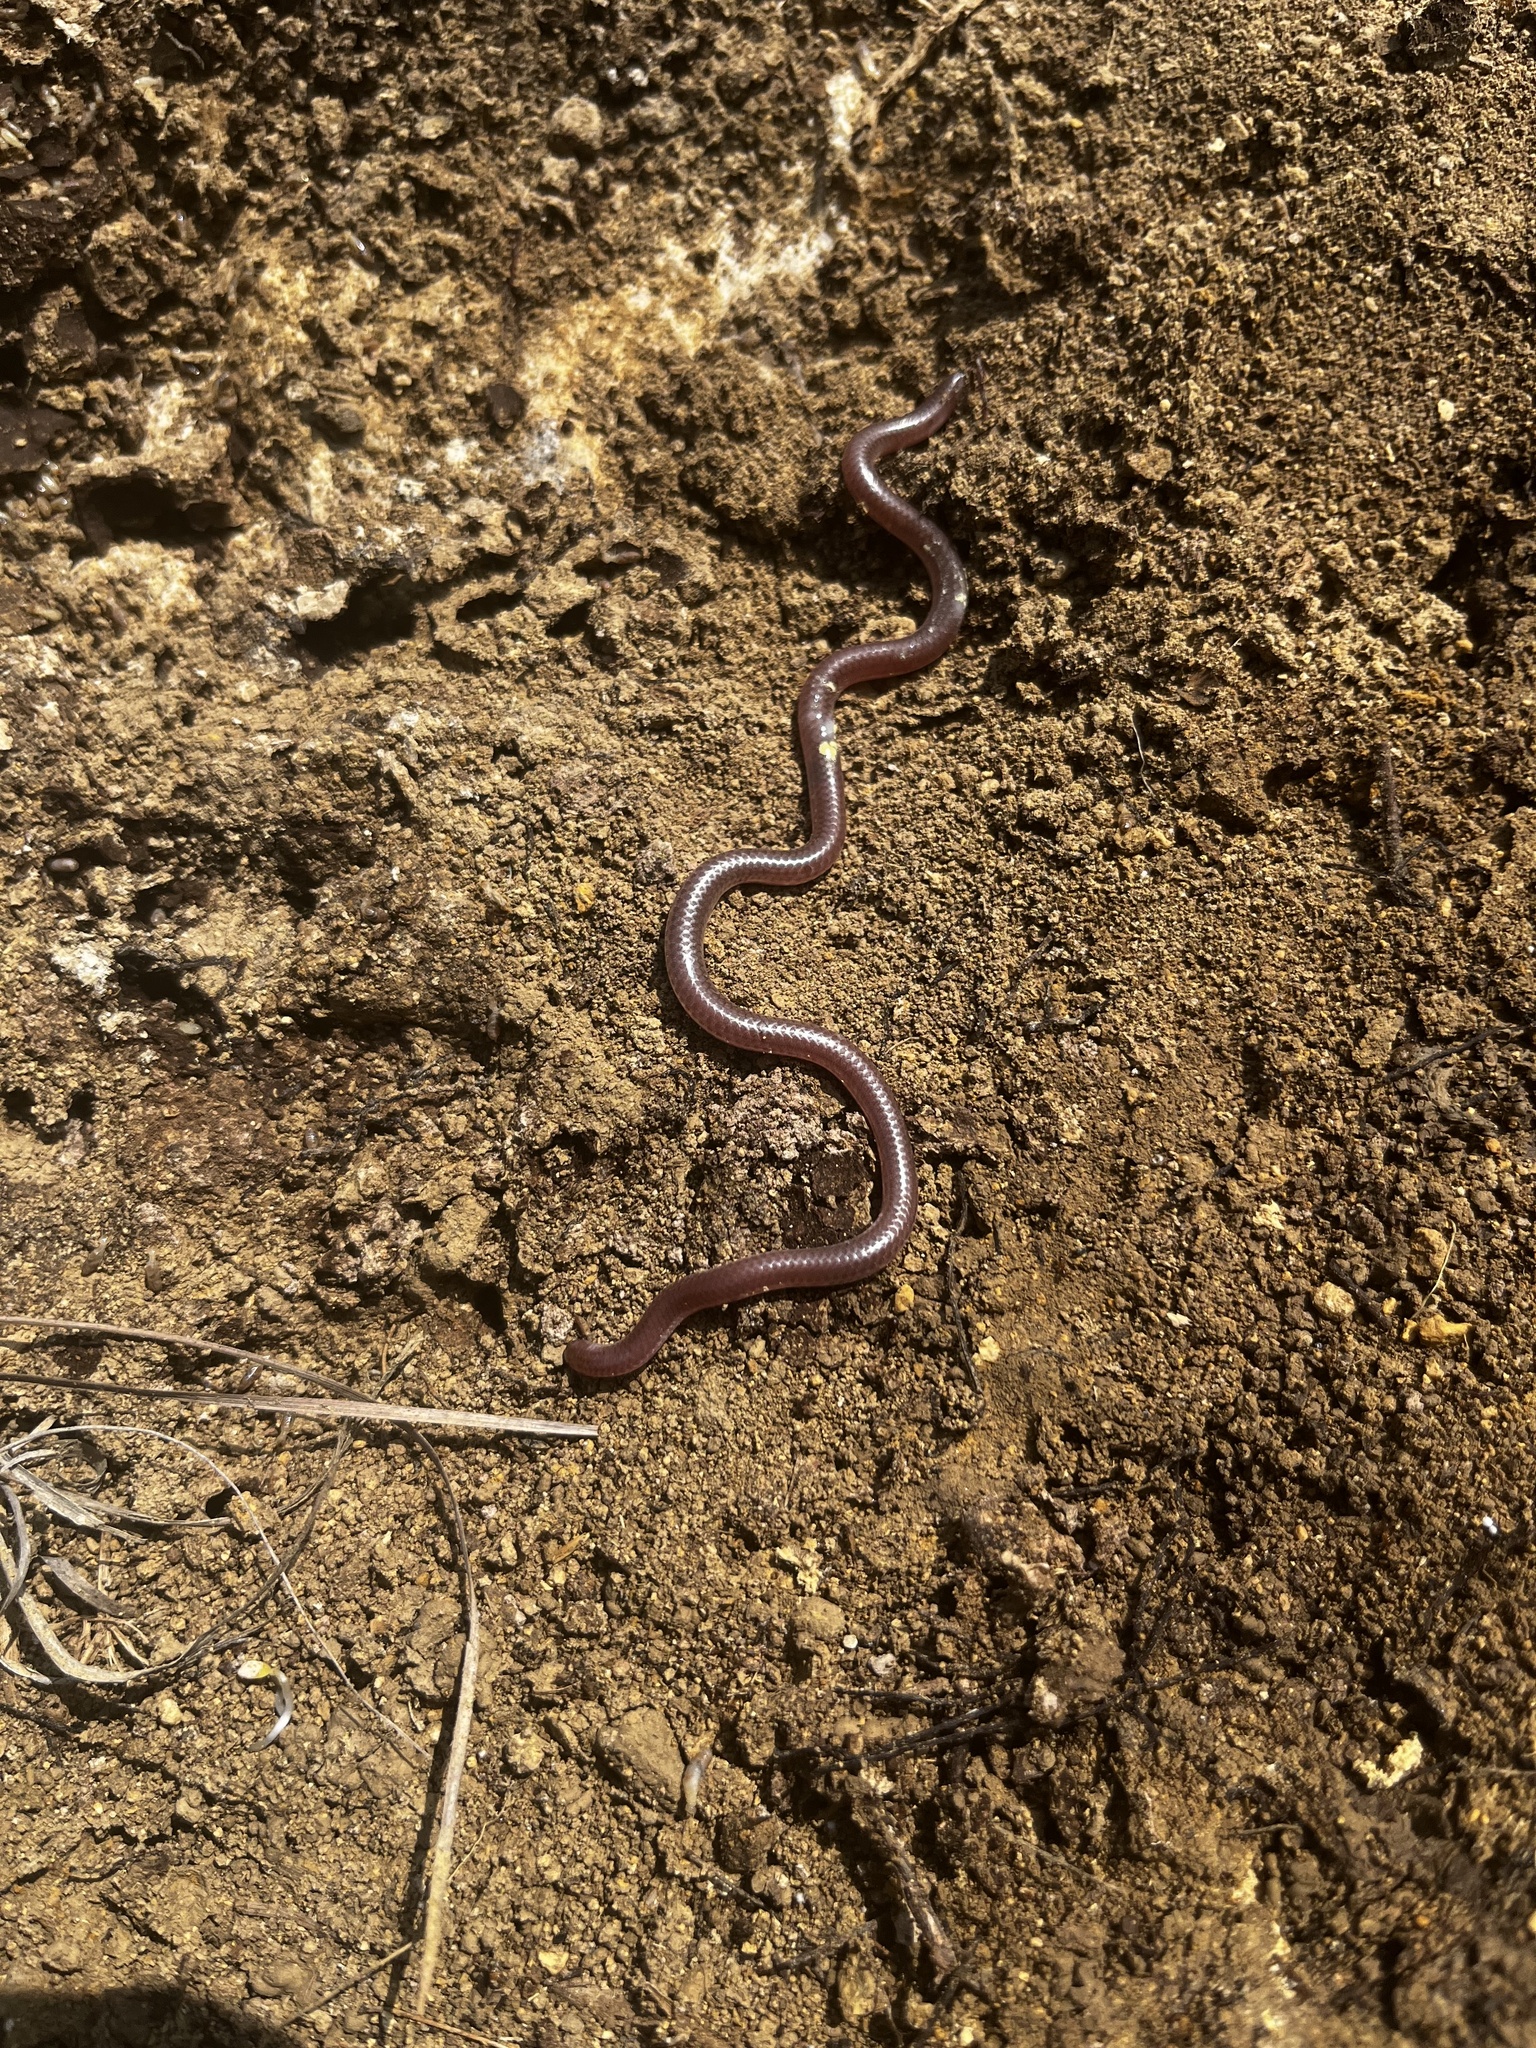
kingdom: Animalia
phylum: Chordata
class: Squamata
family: Leptotyphlopidae
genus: Rena
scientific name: Rena dulcis
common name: Texas blind snake
